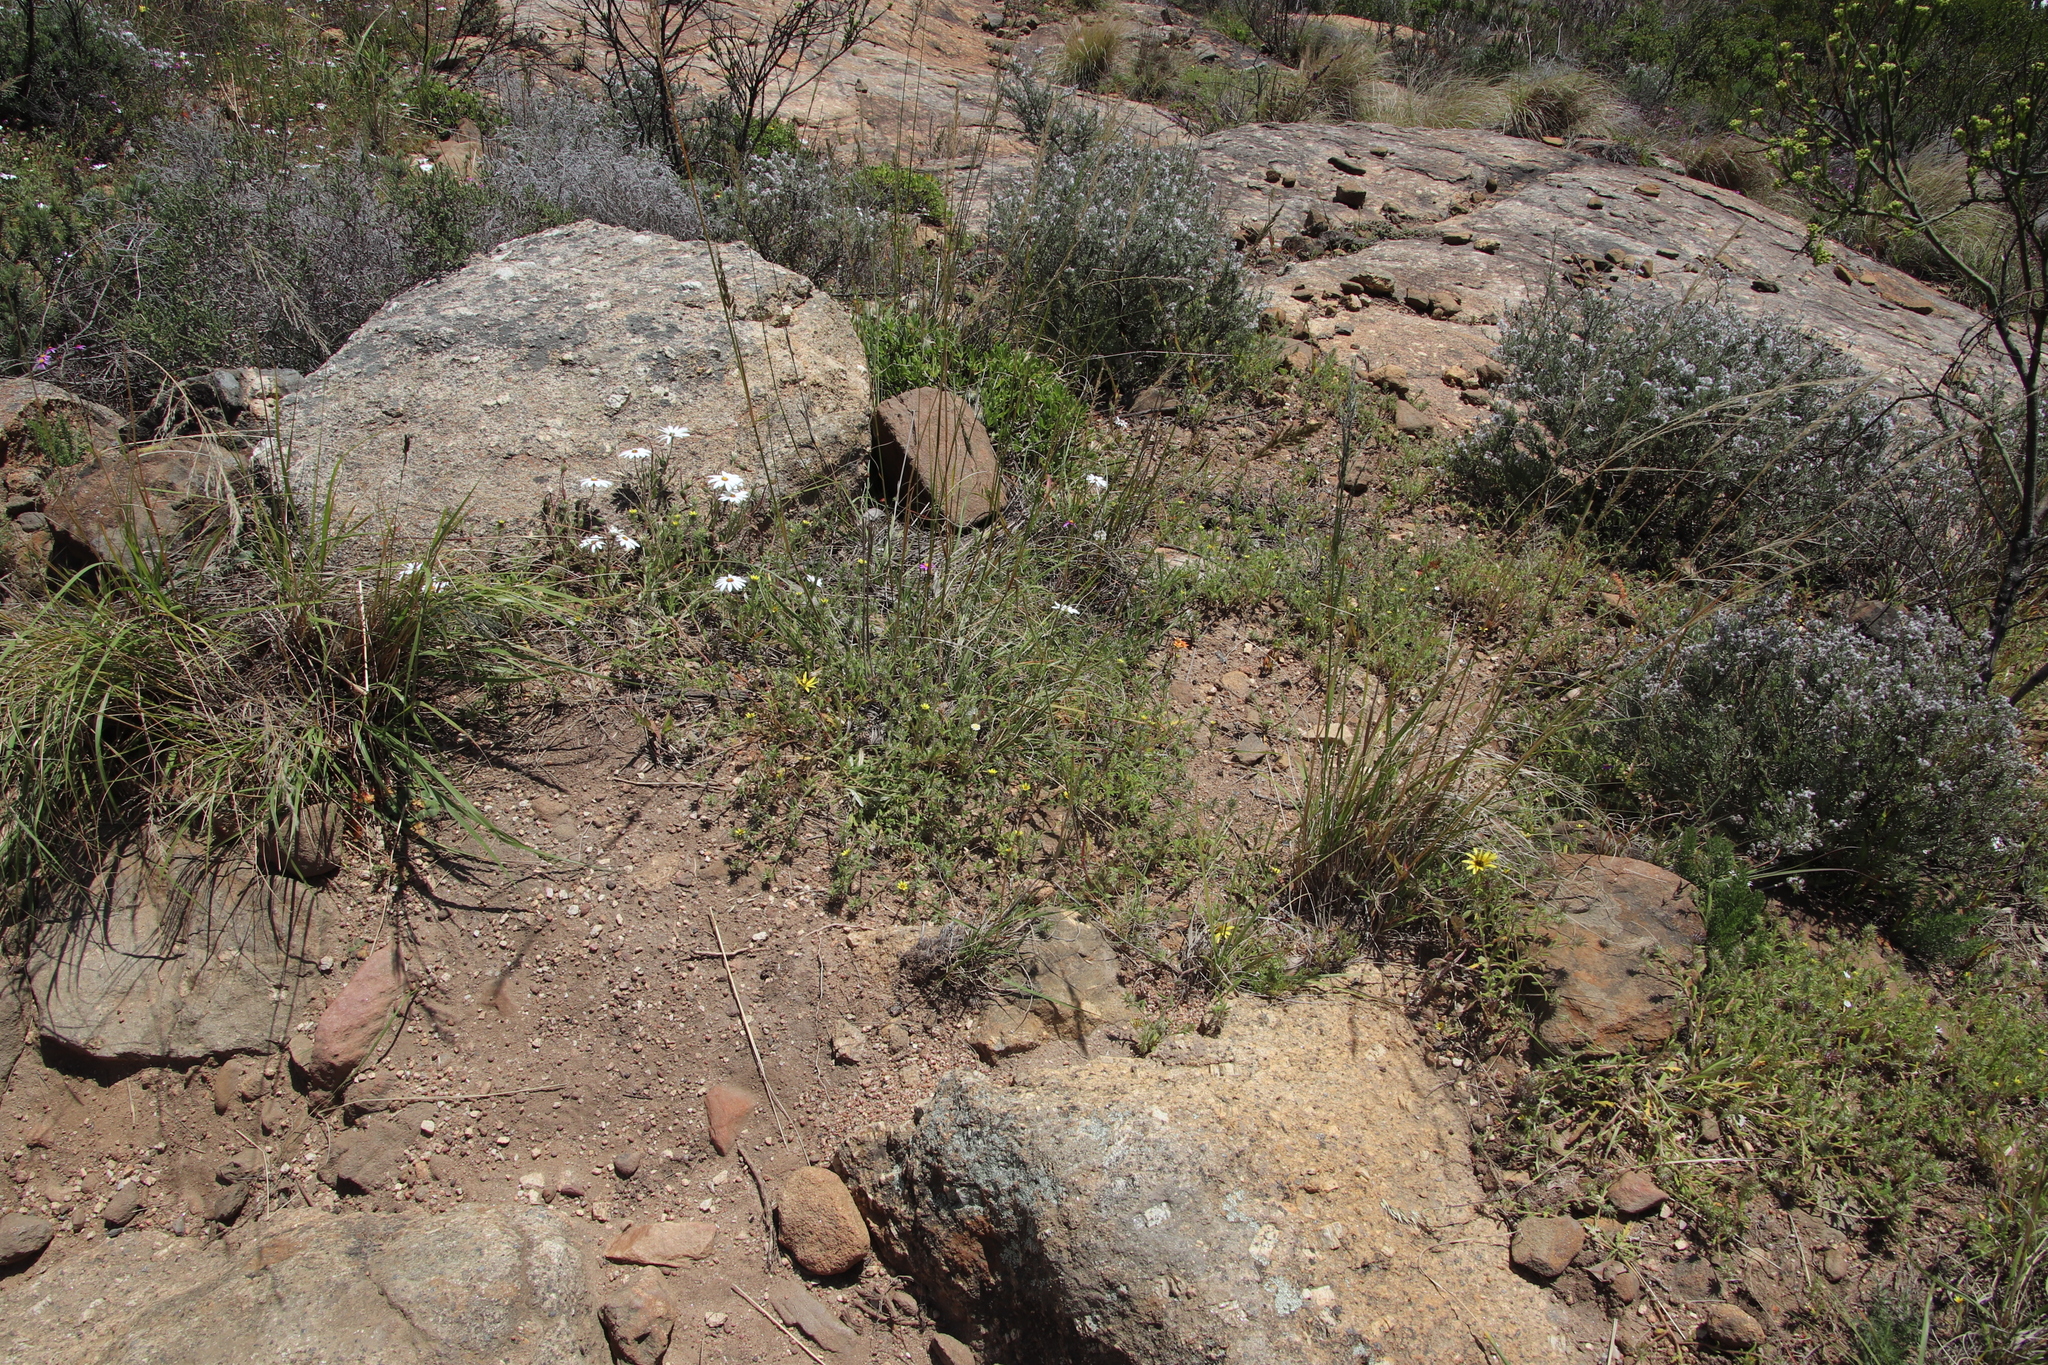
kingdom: Plantae
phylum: Tracheophyta
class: Magnoliopsida
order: Asterales
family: Asteraceae
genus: Gorteria
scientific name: Gorteria personata
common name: Gorteria
